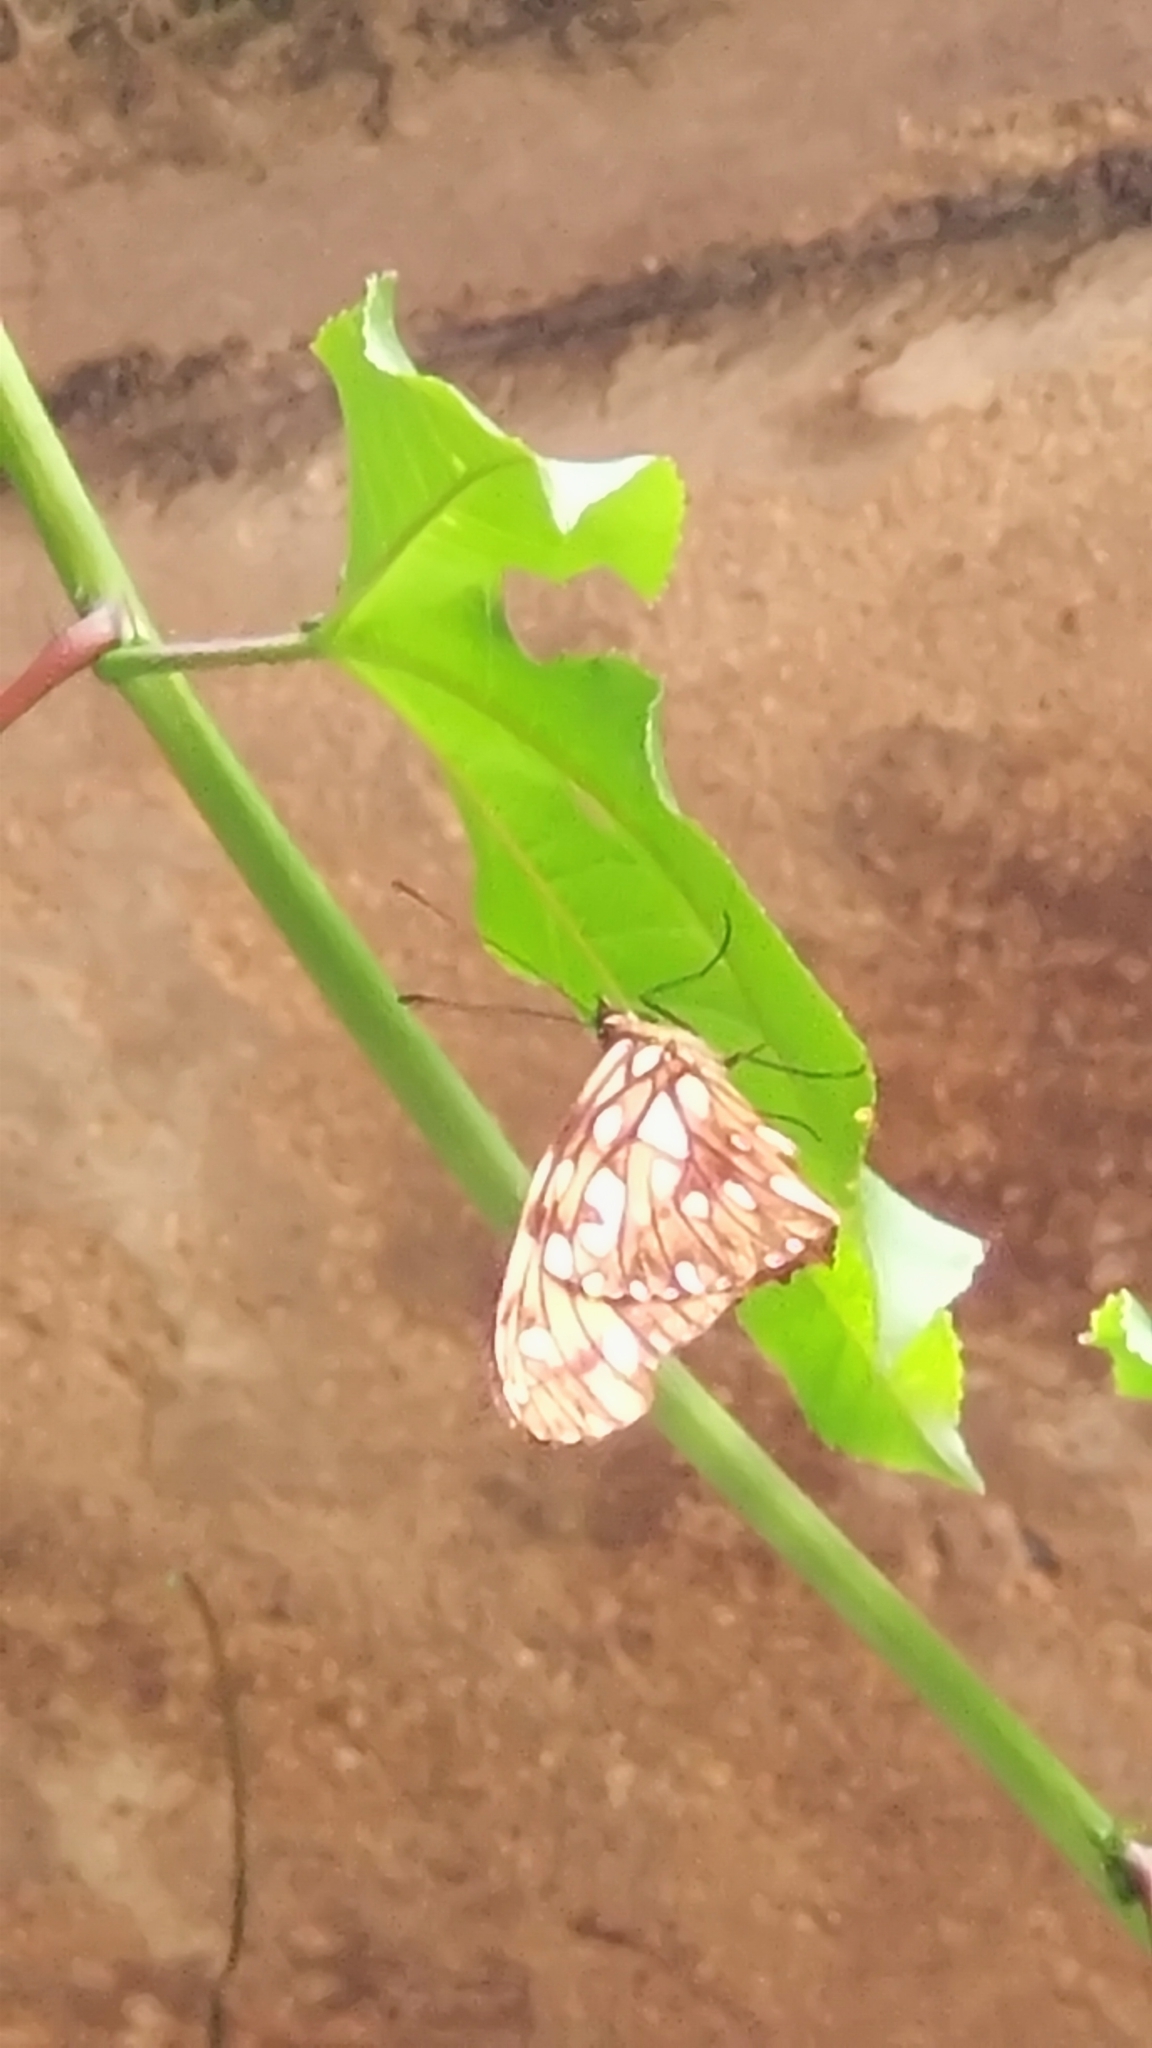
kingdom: Animalia
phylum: Arthropoda
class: Insecta
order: Lepidoptera
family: Nymphalidae
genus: Dione
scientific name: Dione juno
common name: Juno silverspot
